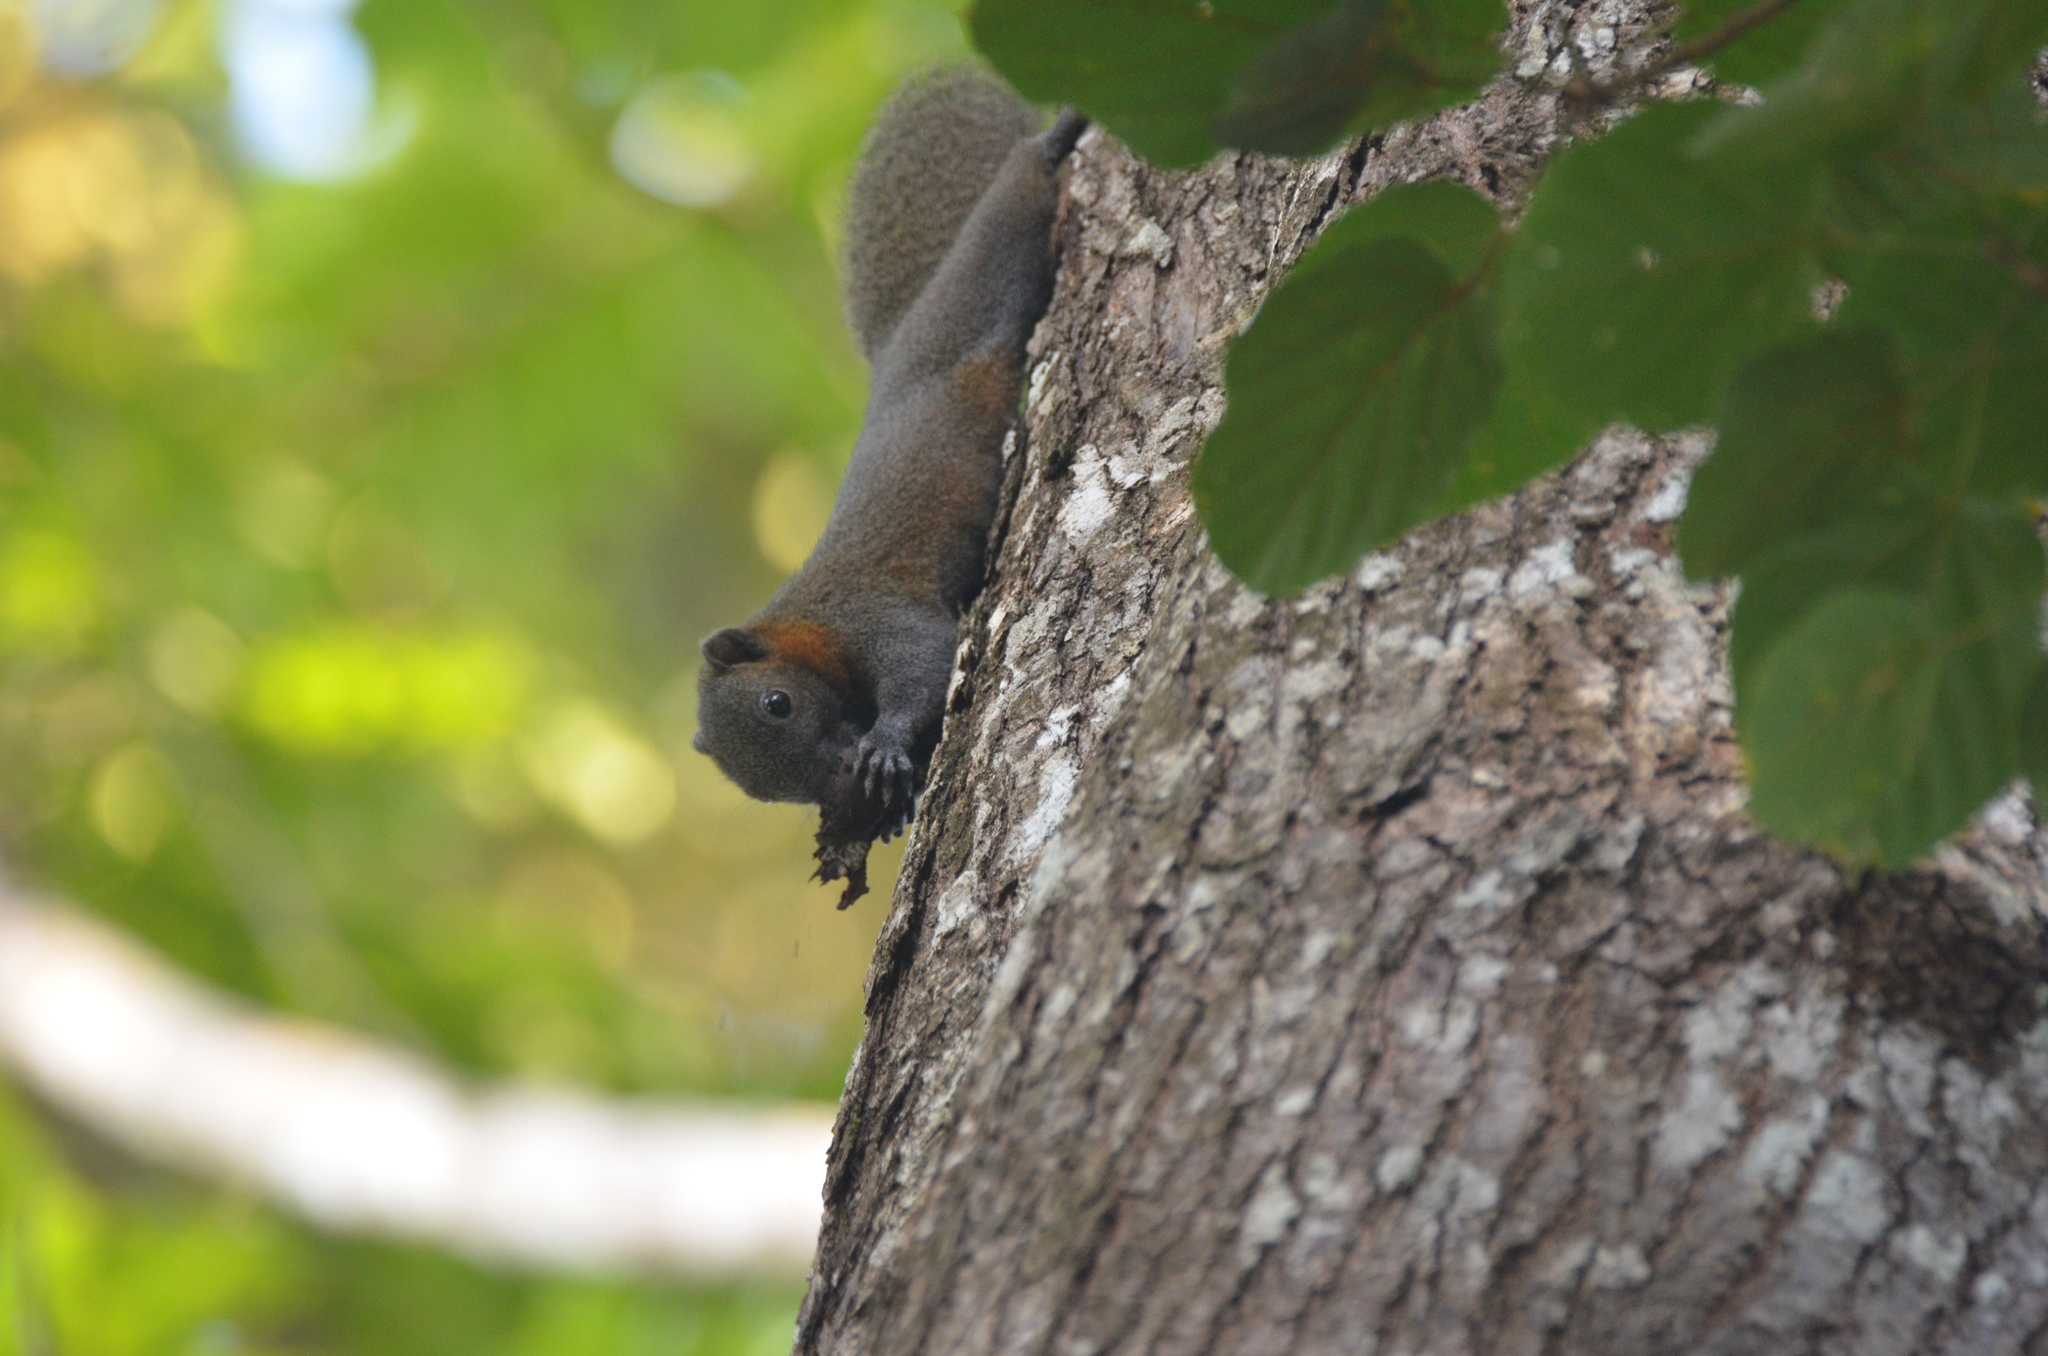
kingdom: Animalia
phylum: Chordata
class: Mammalia
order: Rodentia
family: Sciuridae
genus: Callosciurus
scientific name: Callosciurus caniceps
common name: Gray-bellied squirrel
